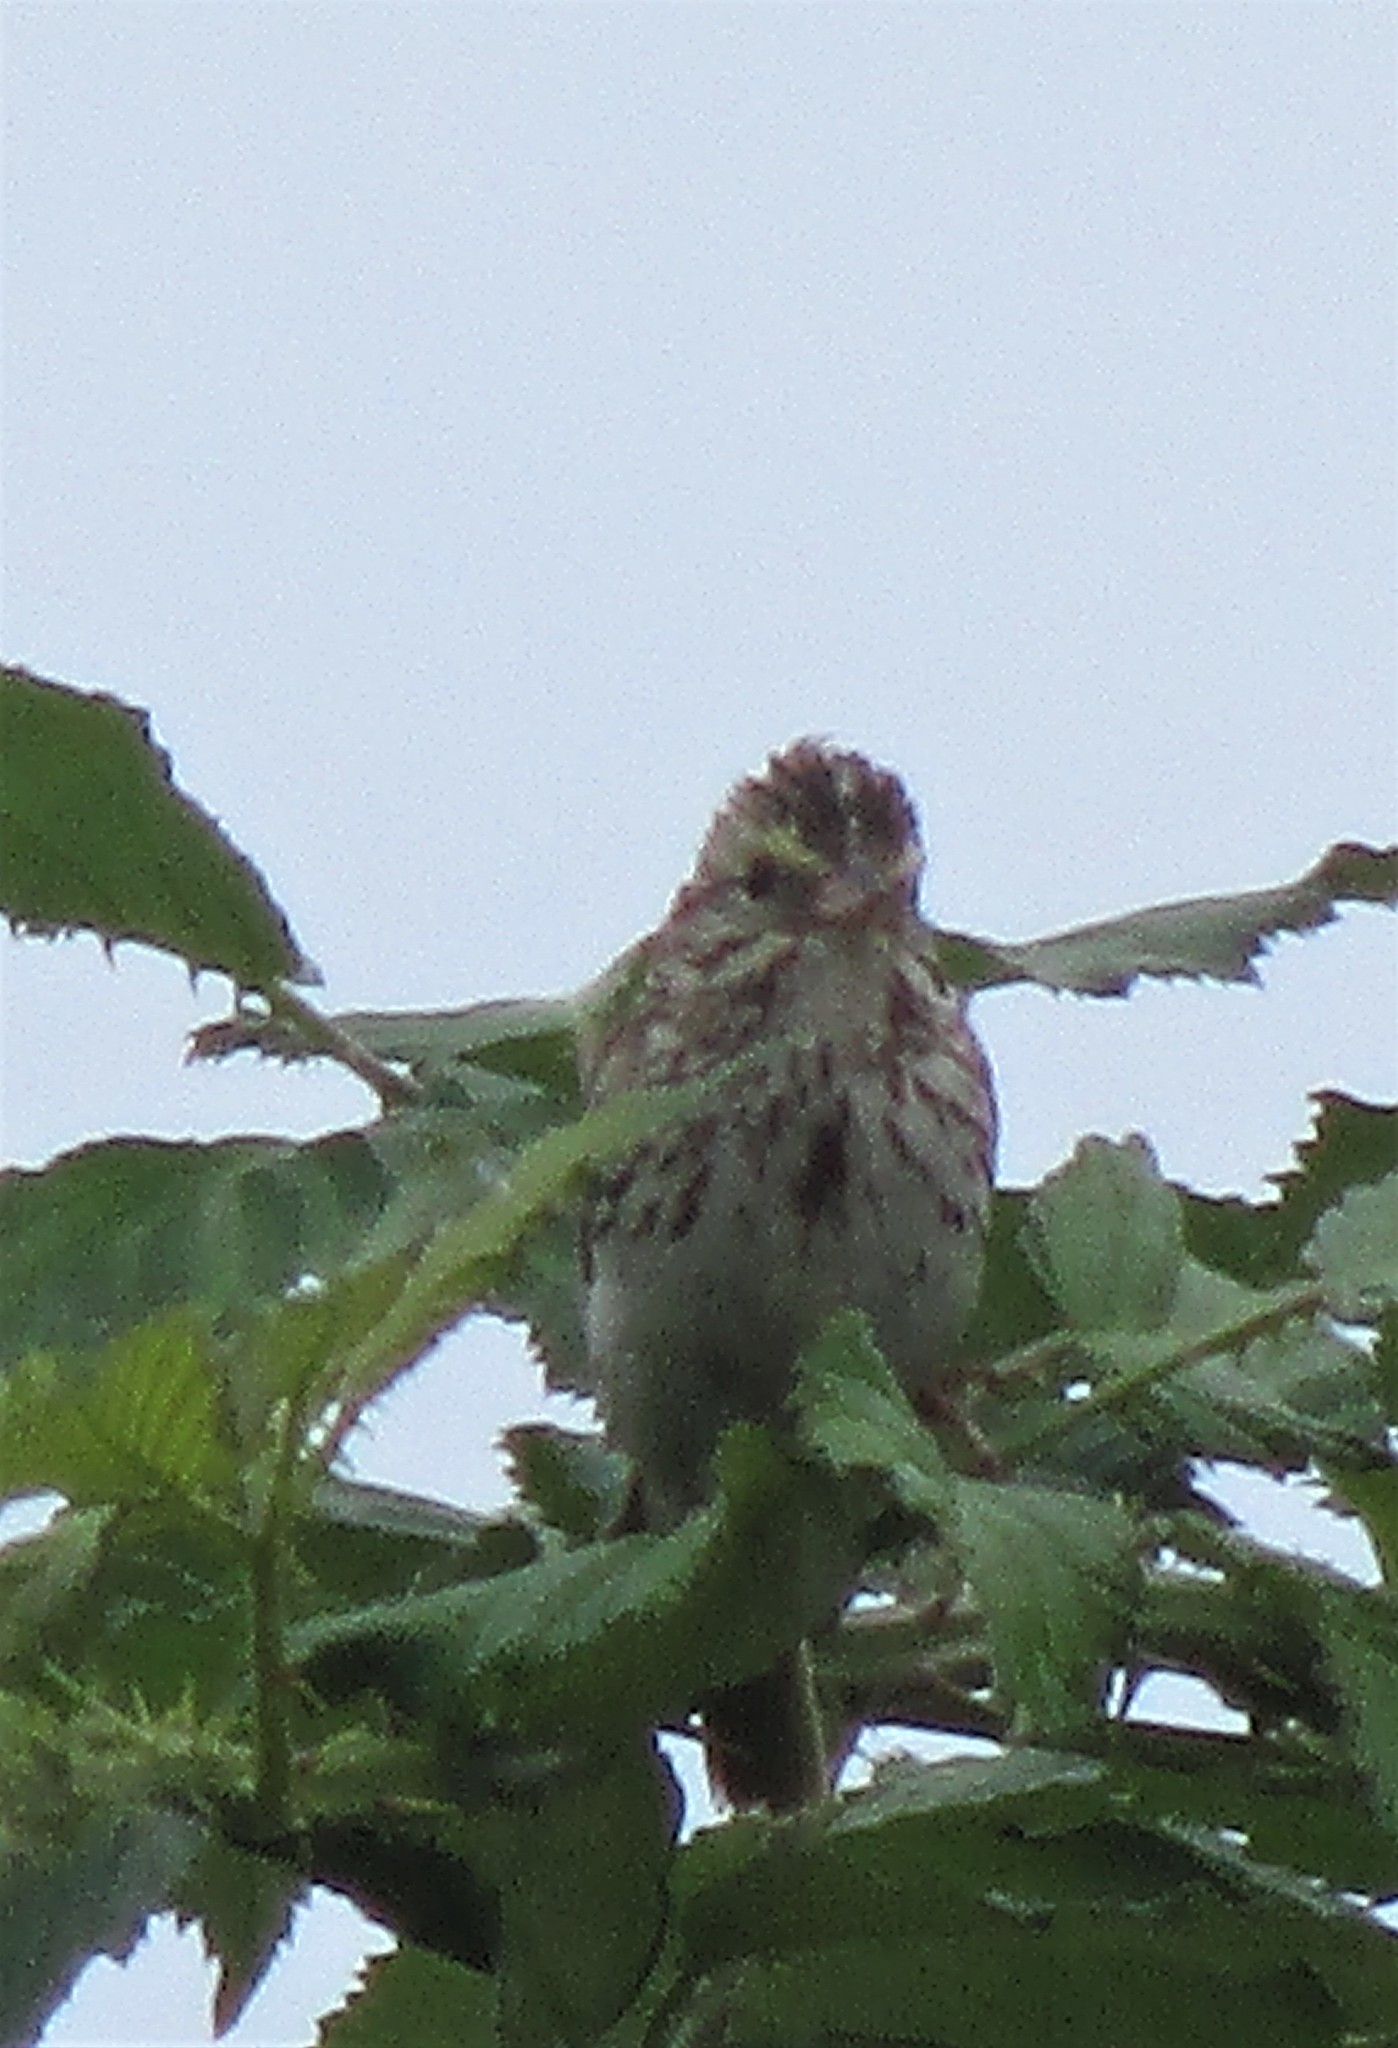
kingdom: Animalia
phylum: Chordata
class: Aves
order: Passeriformes
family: Passerellidae
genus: Passerculus
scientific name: Passerculus sandwichensis
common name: Savannah sparrow
